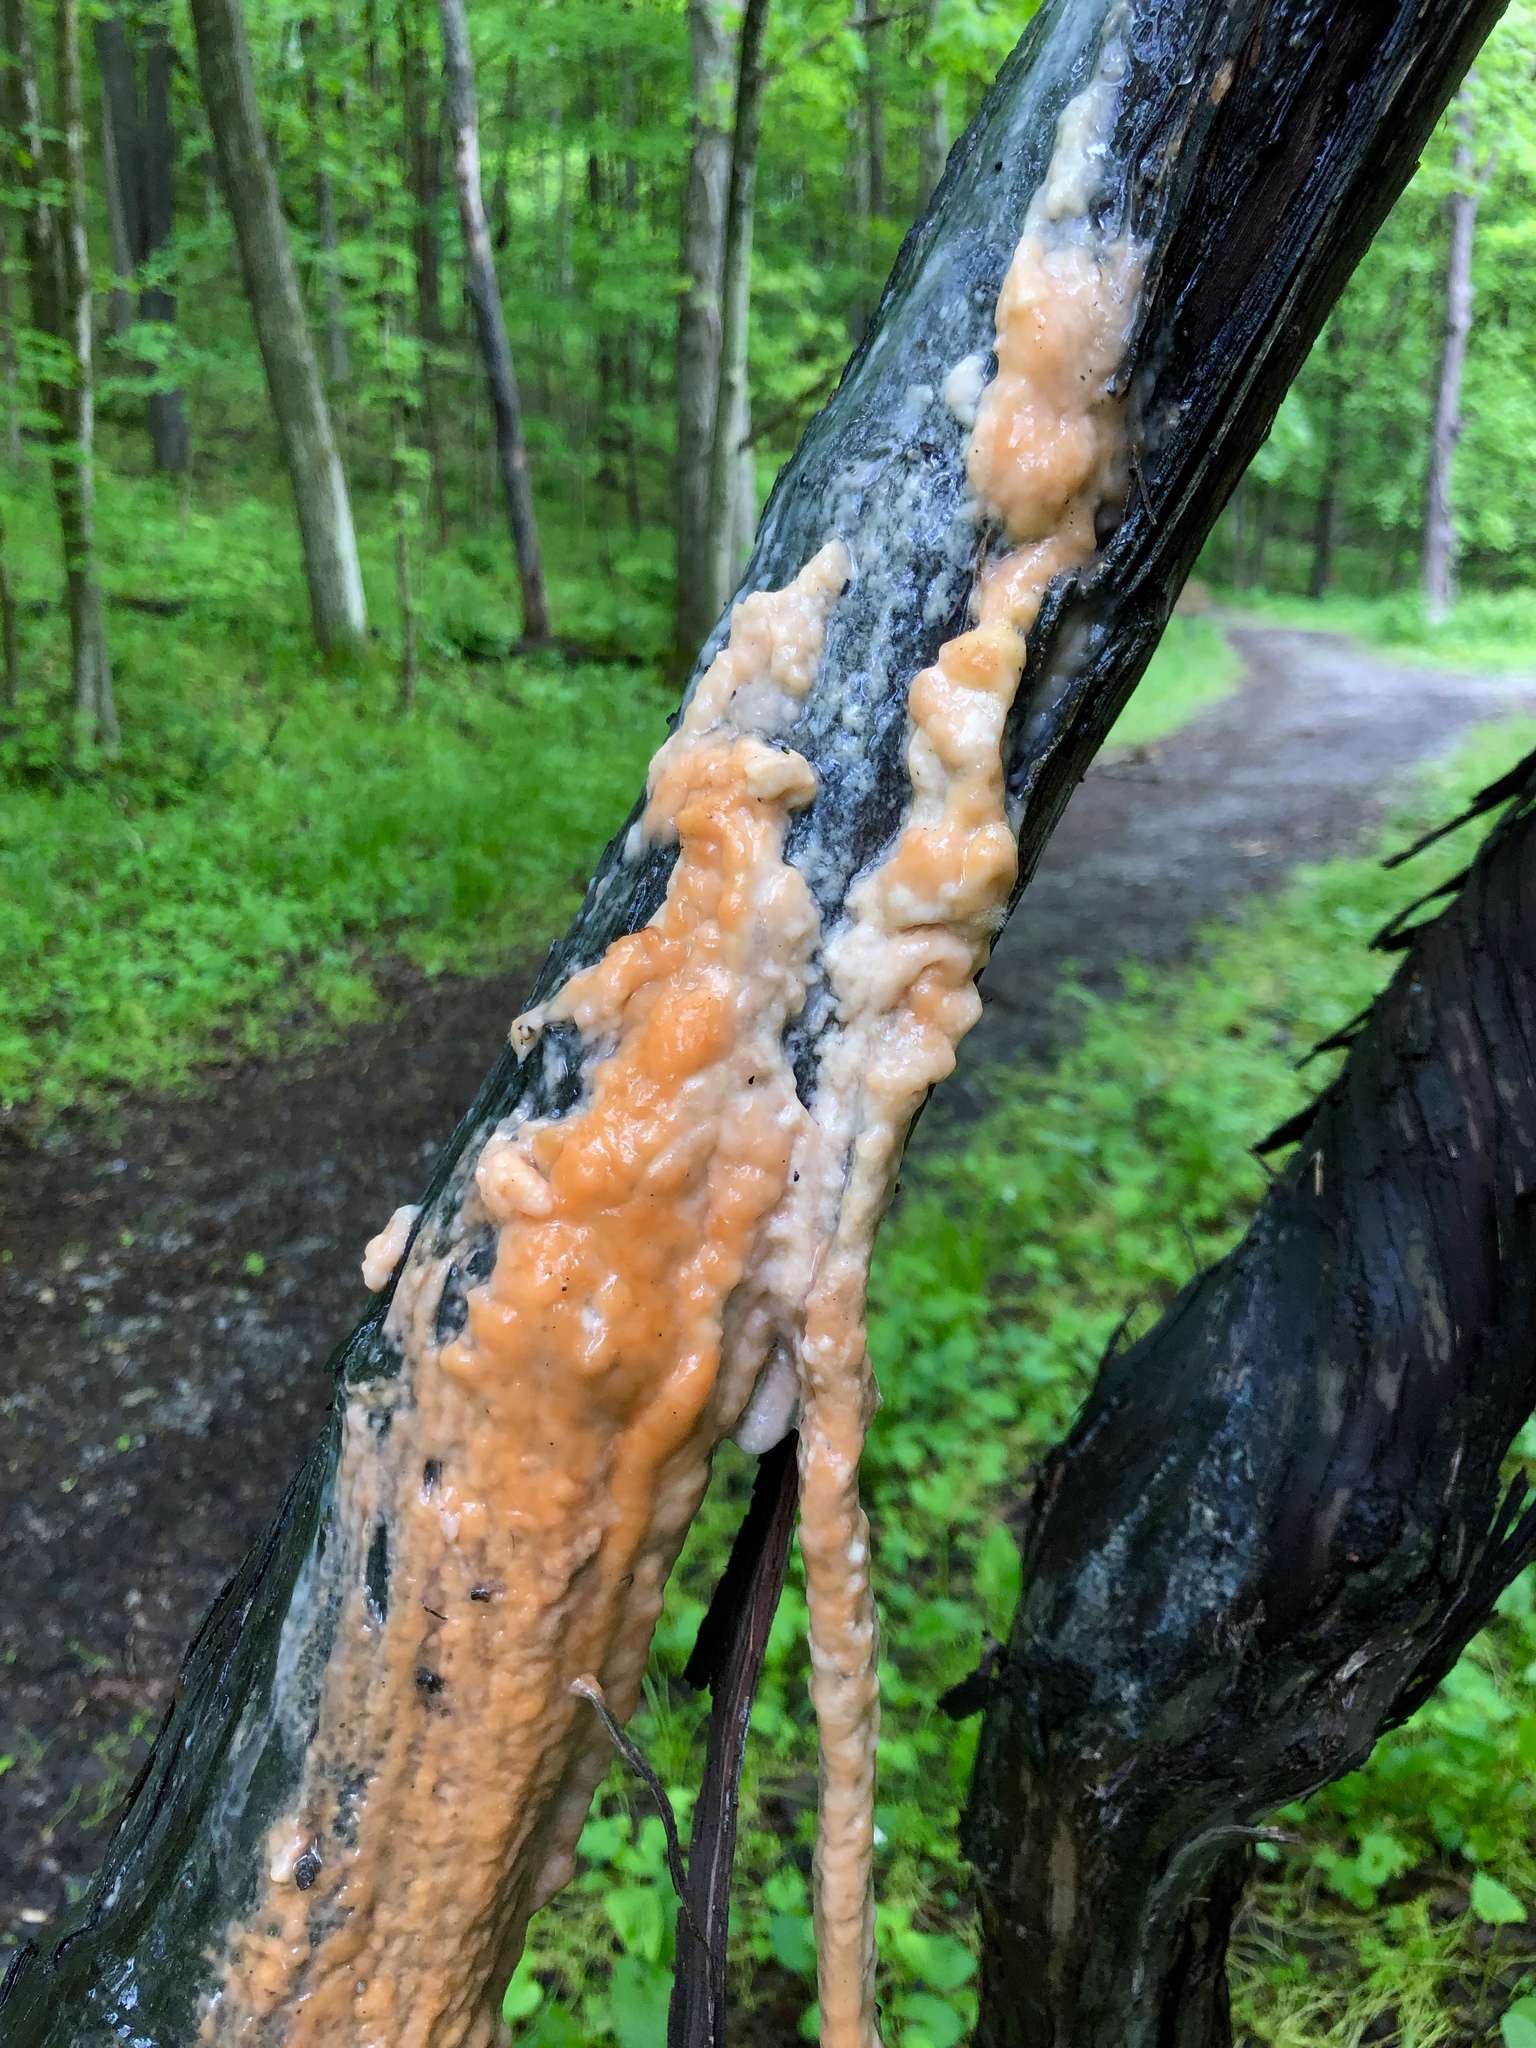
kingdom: Fungi
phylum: Ascomycota
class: Sordariomycetes
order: Hypocreales
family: Nectriaceae
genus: Fusicolla
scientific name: Fusicolla merismoides
